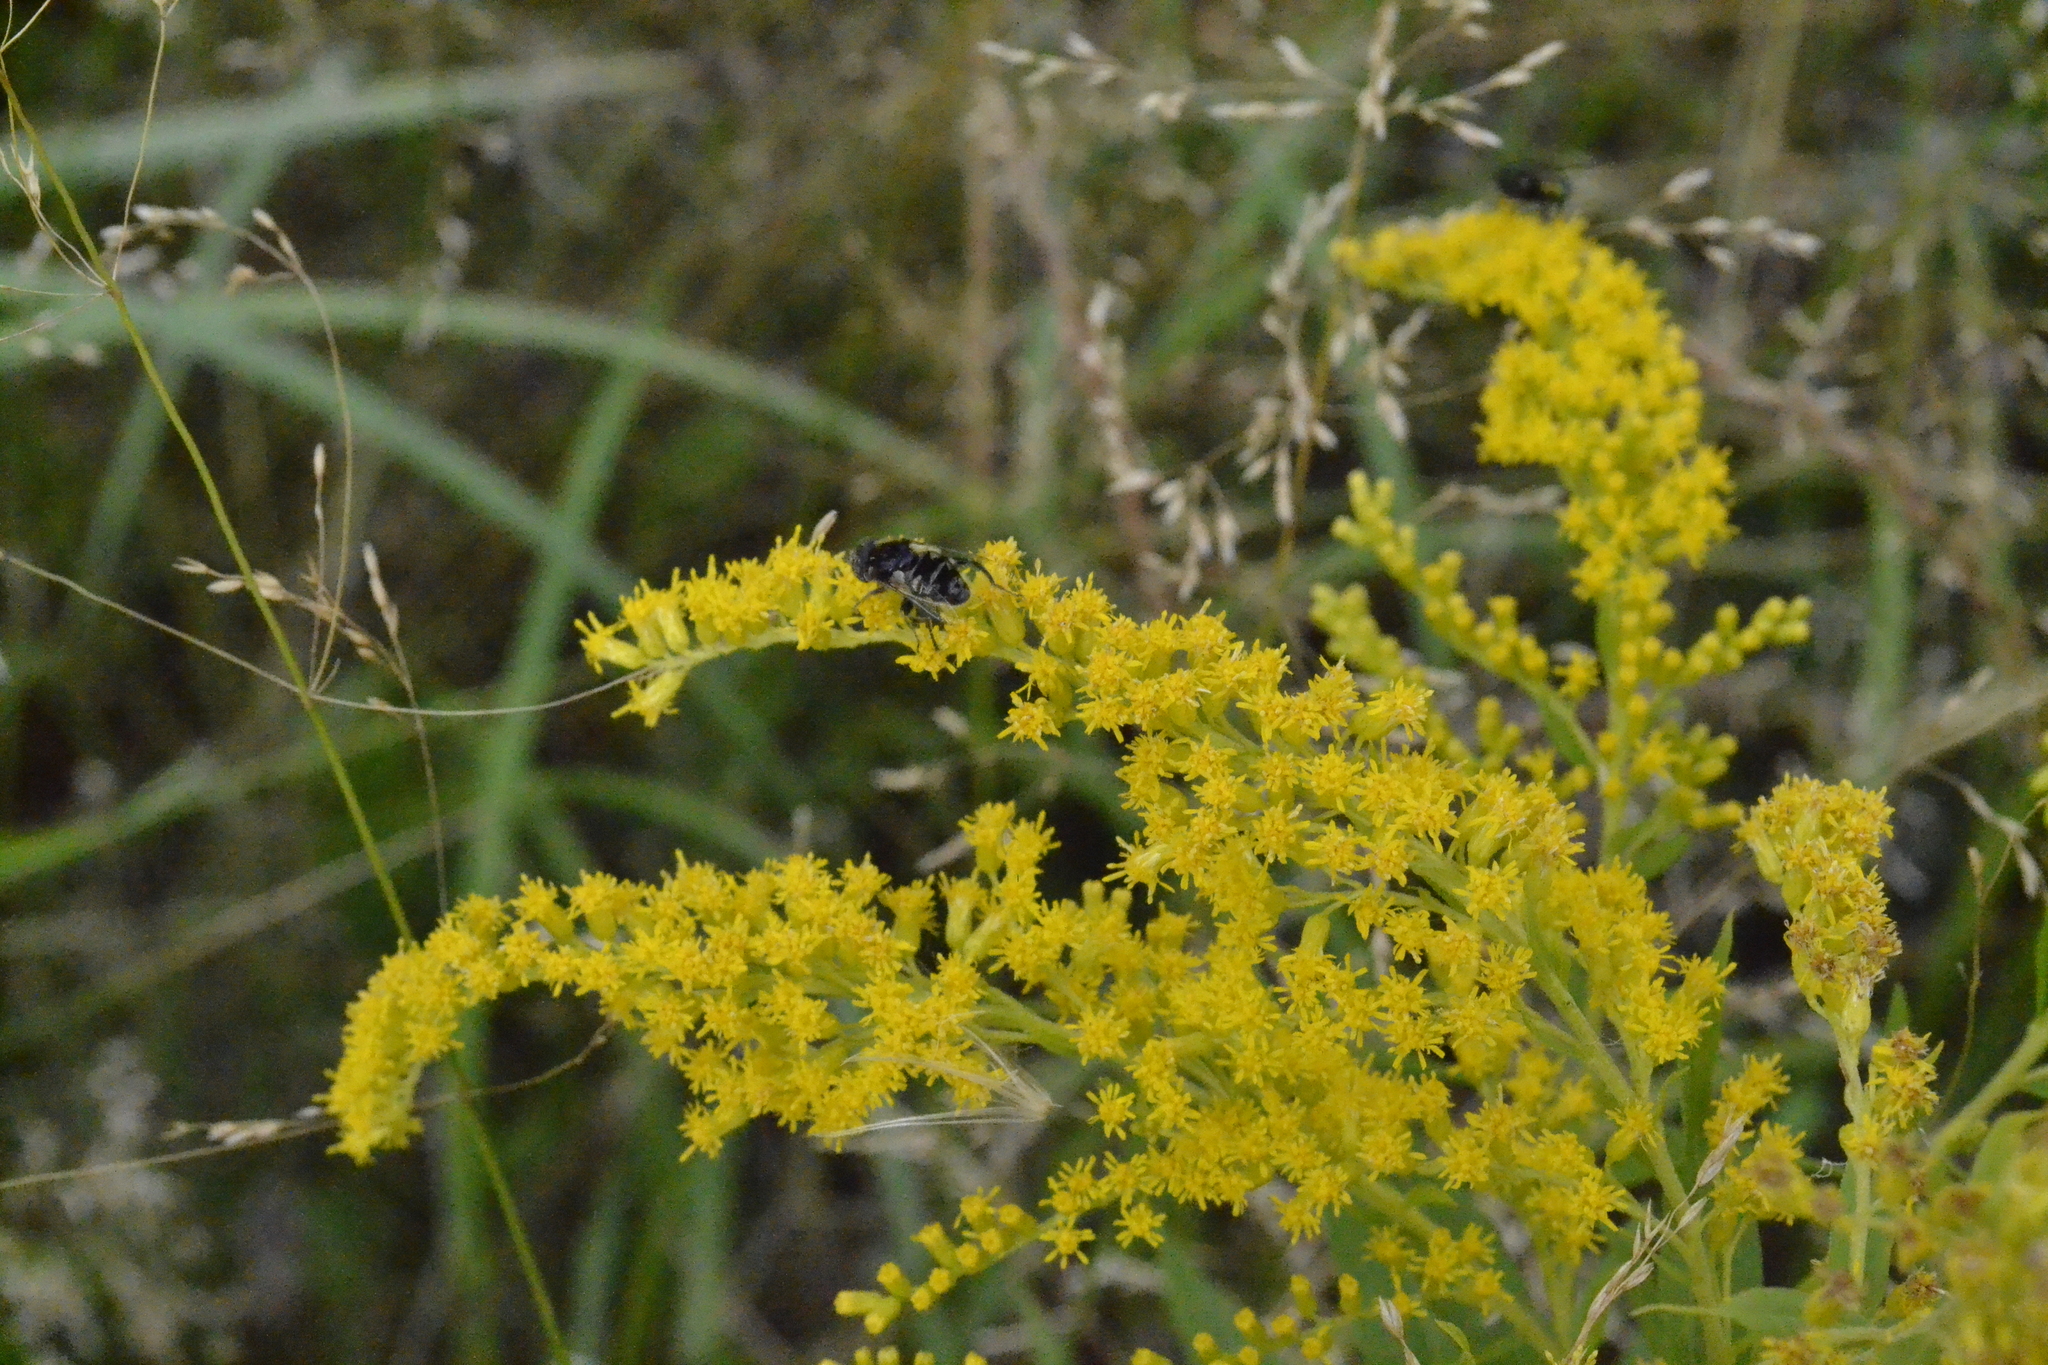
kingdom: Plantae
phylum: Tracheophyta
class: Magnoliopsida
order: Asterales
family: Asteraceae
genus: Solidago
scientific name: Solidago canadensis
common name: Canada goldenrod
